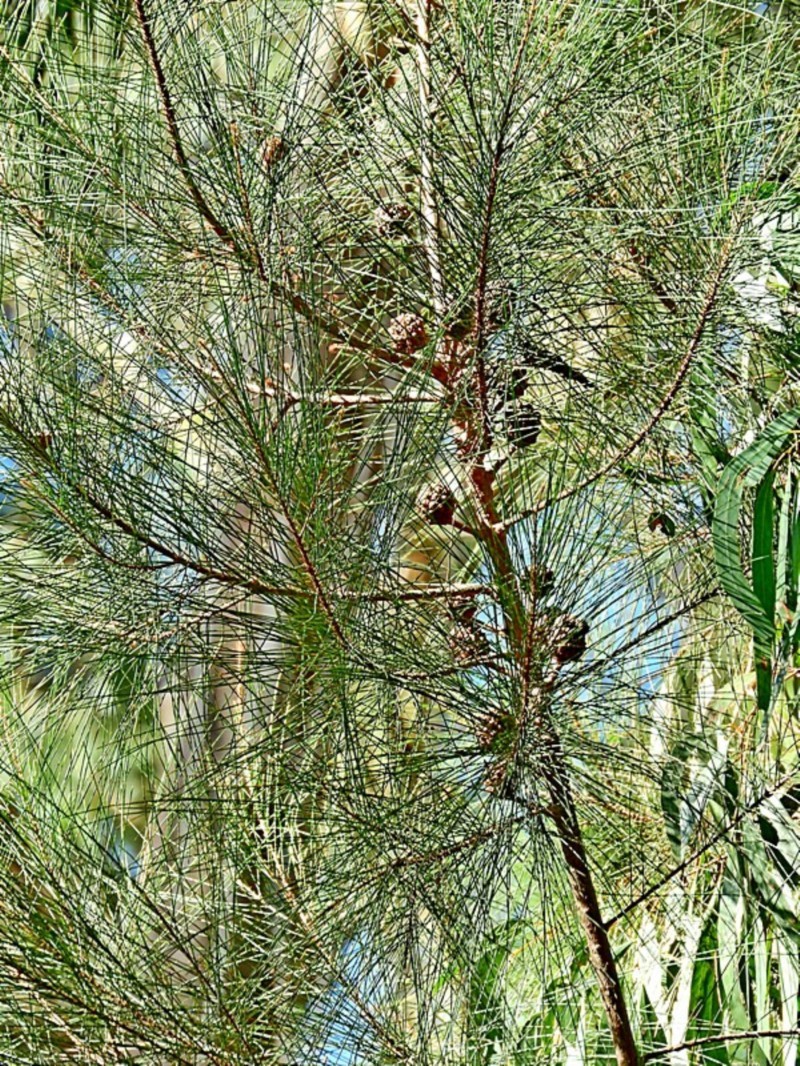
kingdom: Plantae
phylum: Tracheophyta
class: Magnoliopsida
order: Fagales
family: Casuarinaceae
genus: Casuarina
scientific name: Casuarina cunninghamiana
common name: River sheoak
